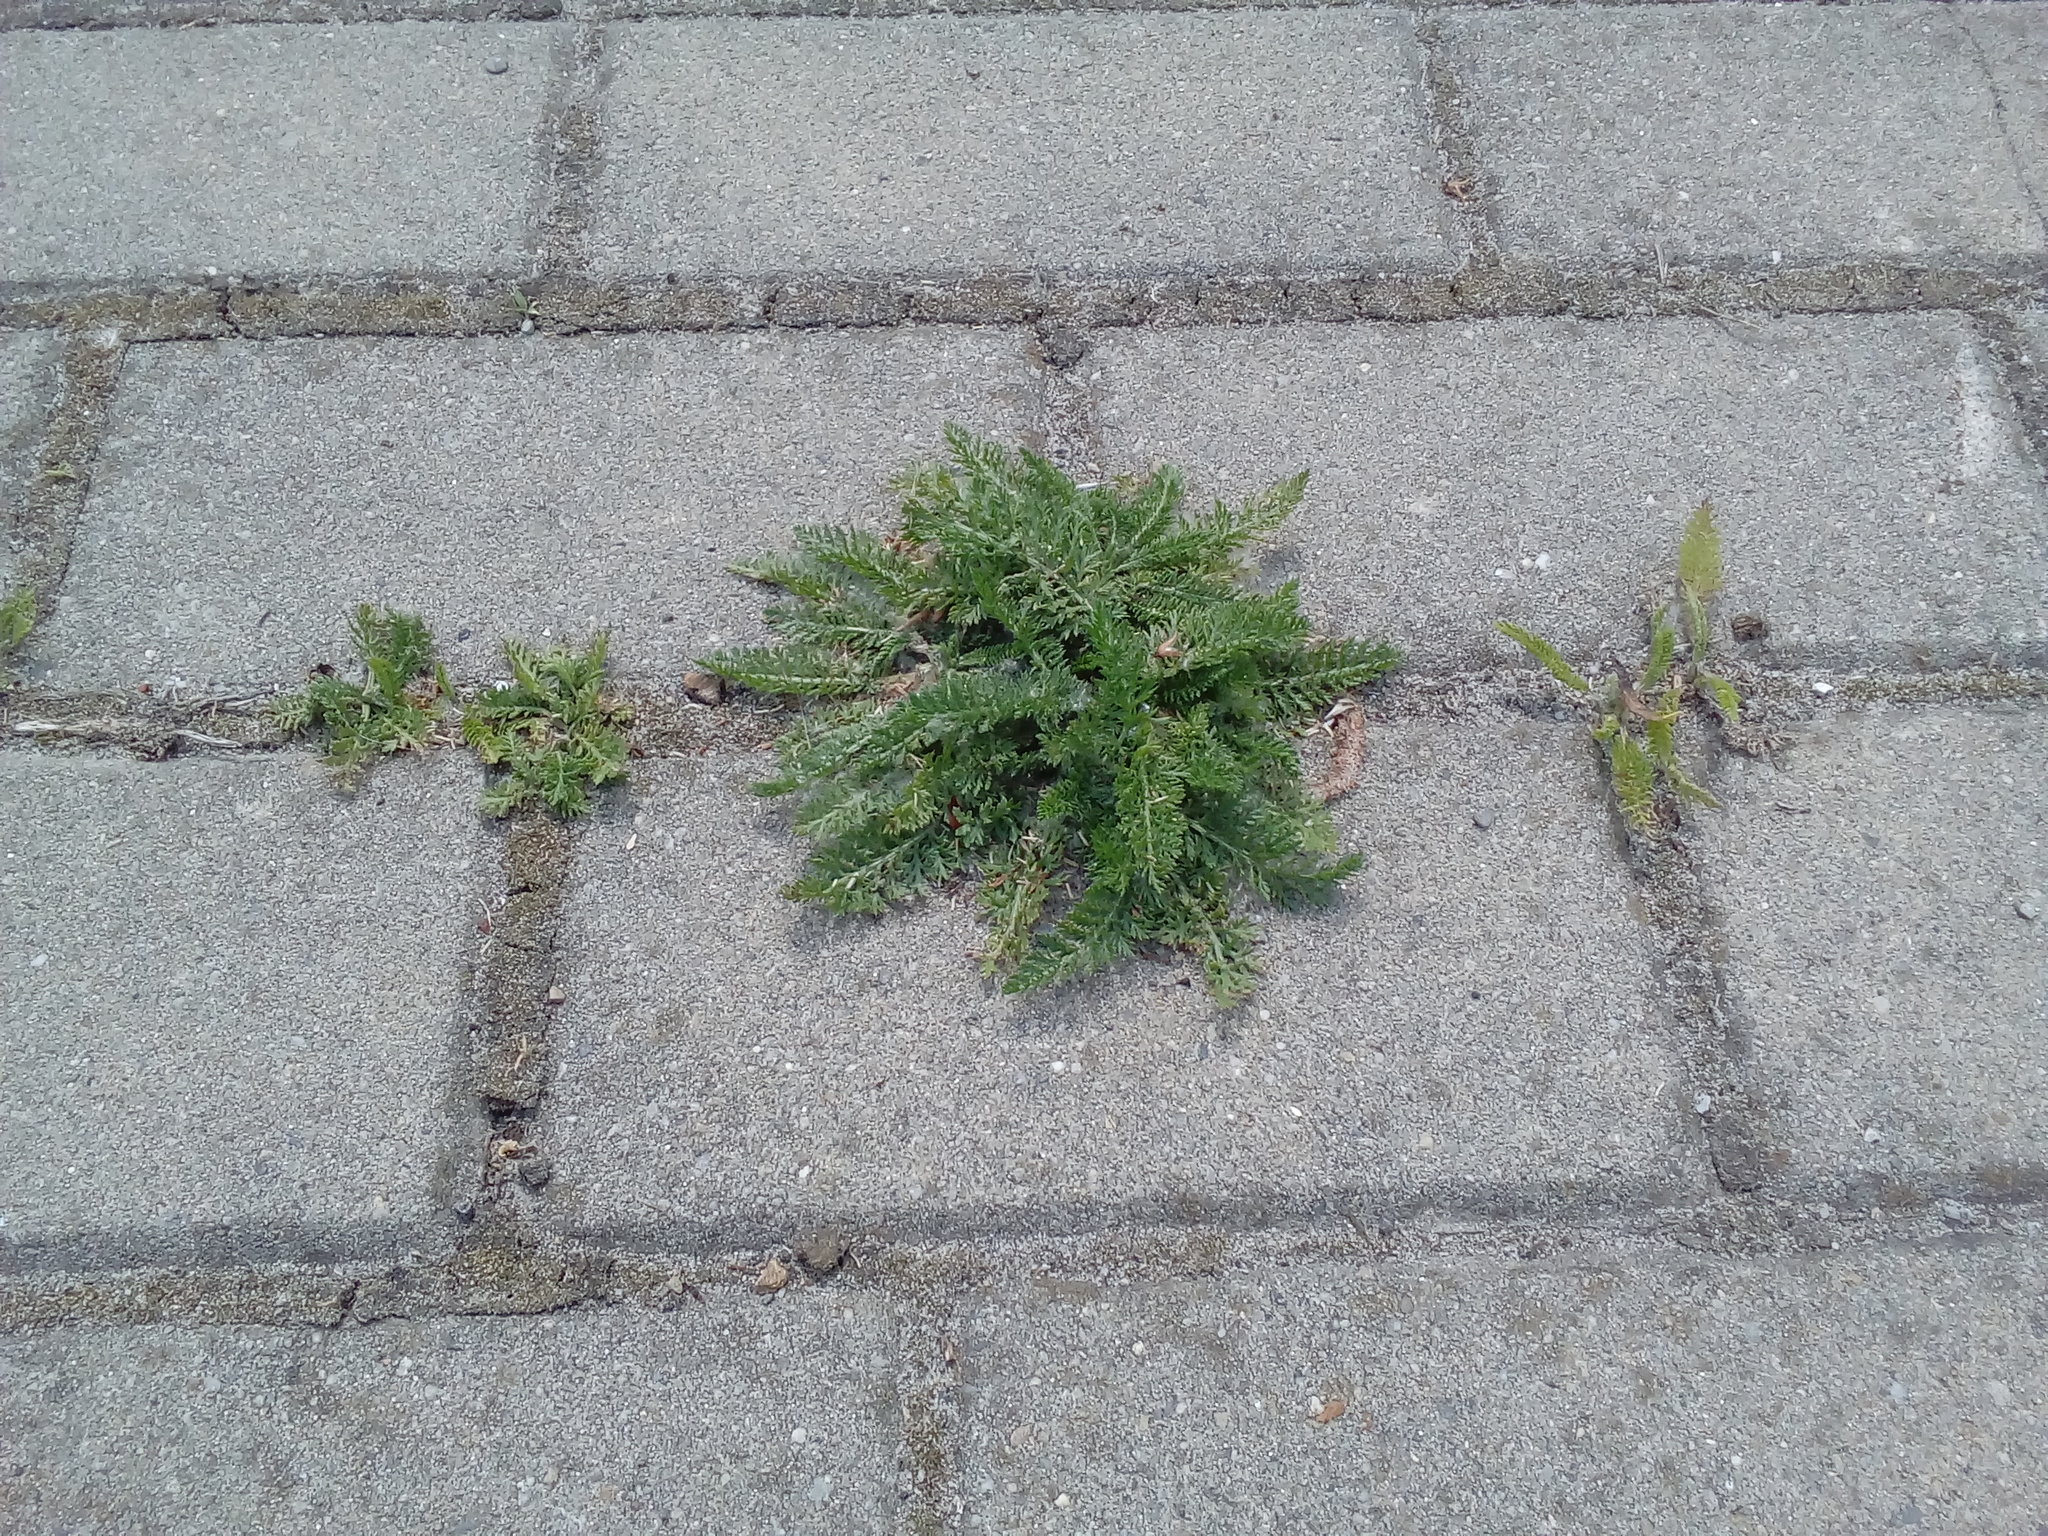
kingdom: Plantae
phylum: Tracheophyta
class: Magnoliopsida
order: Asterales
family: Asteraceae
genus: Achillea
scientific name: Achillea millefolium
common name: Yarrow
